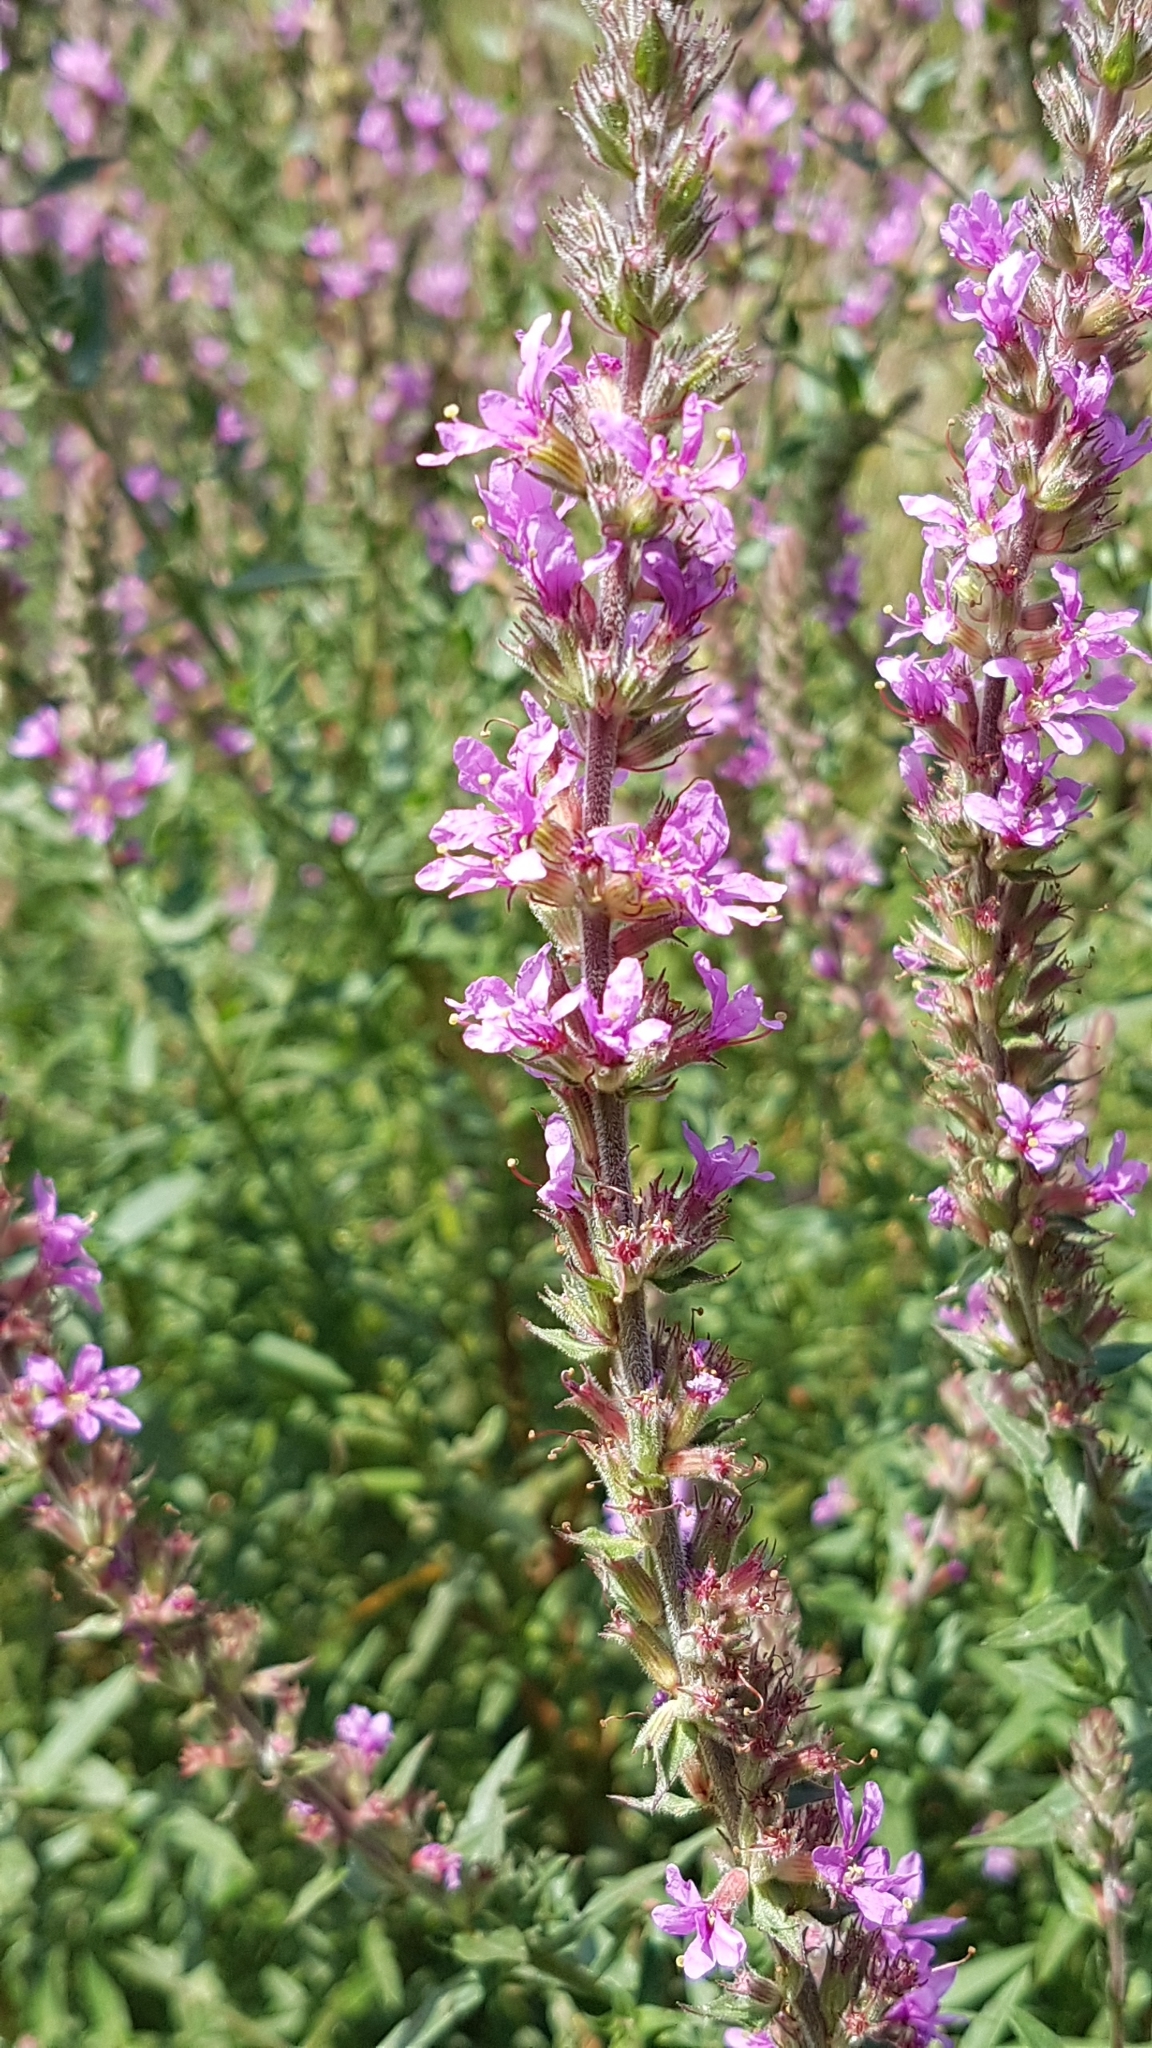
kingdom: Plantae
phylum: Tracheophyta
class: Magnoliopsida
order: Myrtales
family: Lythraceae
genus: Lythrum
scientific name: Lythrum salicaria
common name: Purple loosestrife
